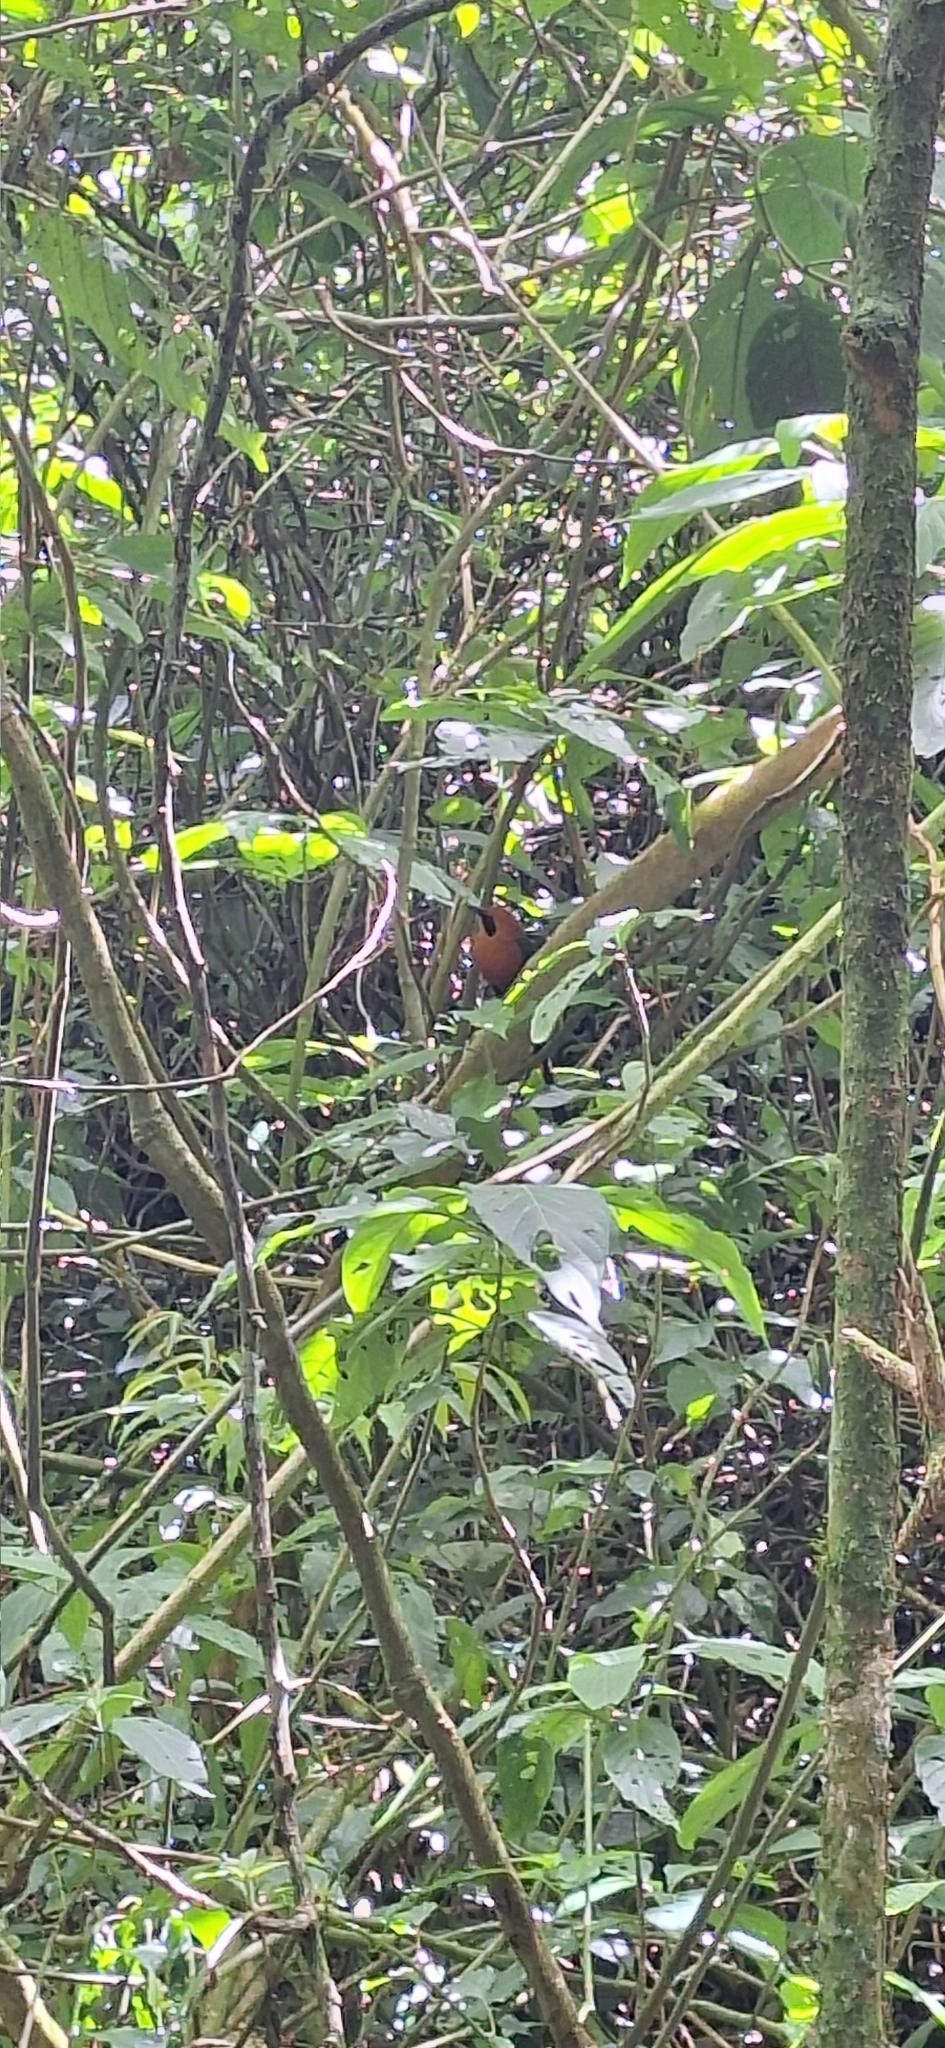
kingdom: Animalia
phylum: Chordata
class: Aves
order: Coraciiformes
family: Momotidae
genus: Baryphthengus
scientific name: Baryphthengus martii
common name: Rufous motmot
